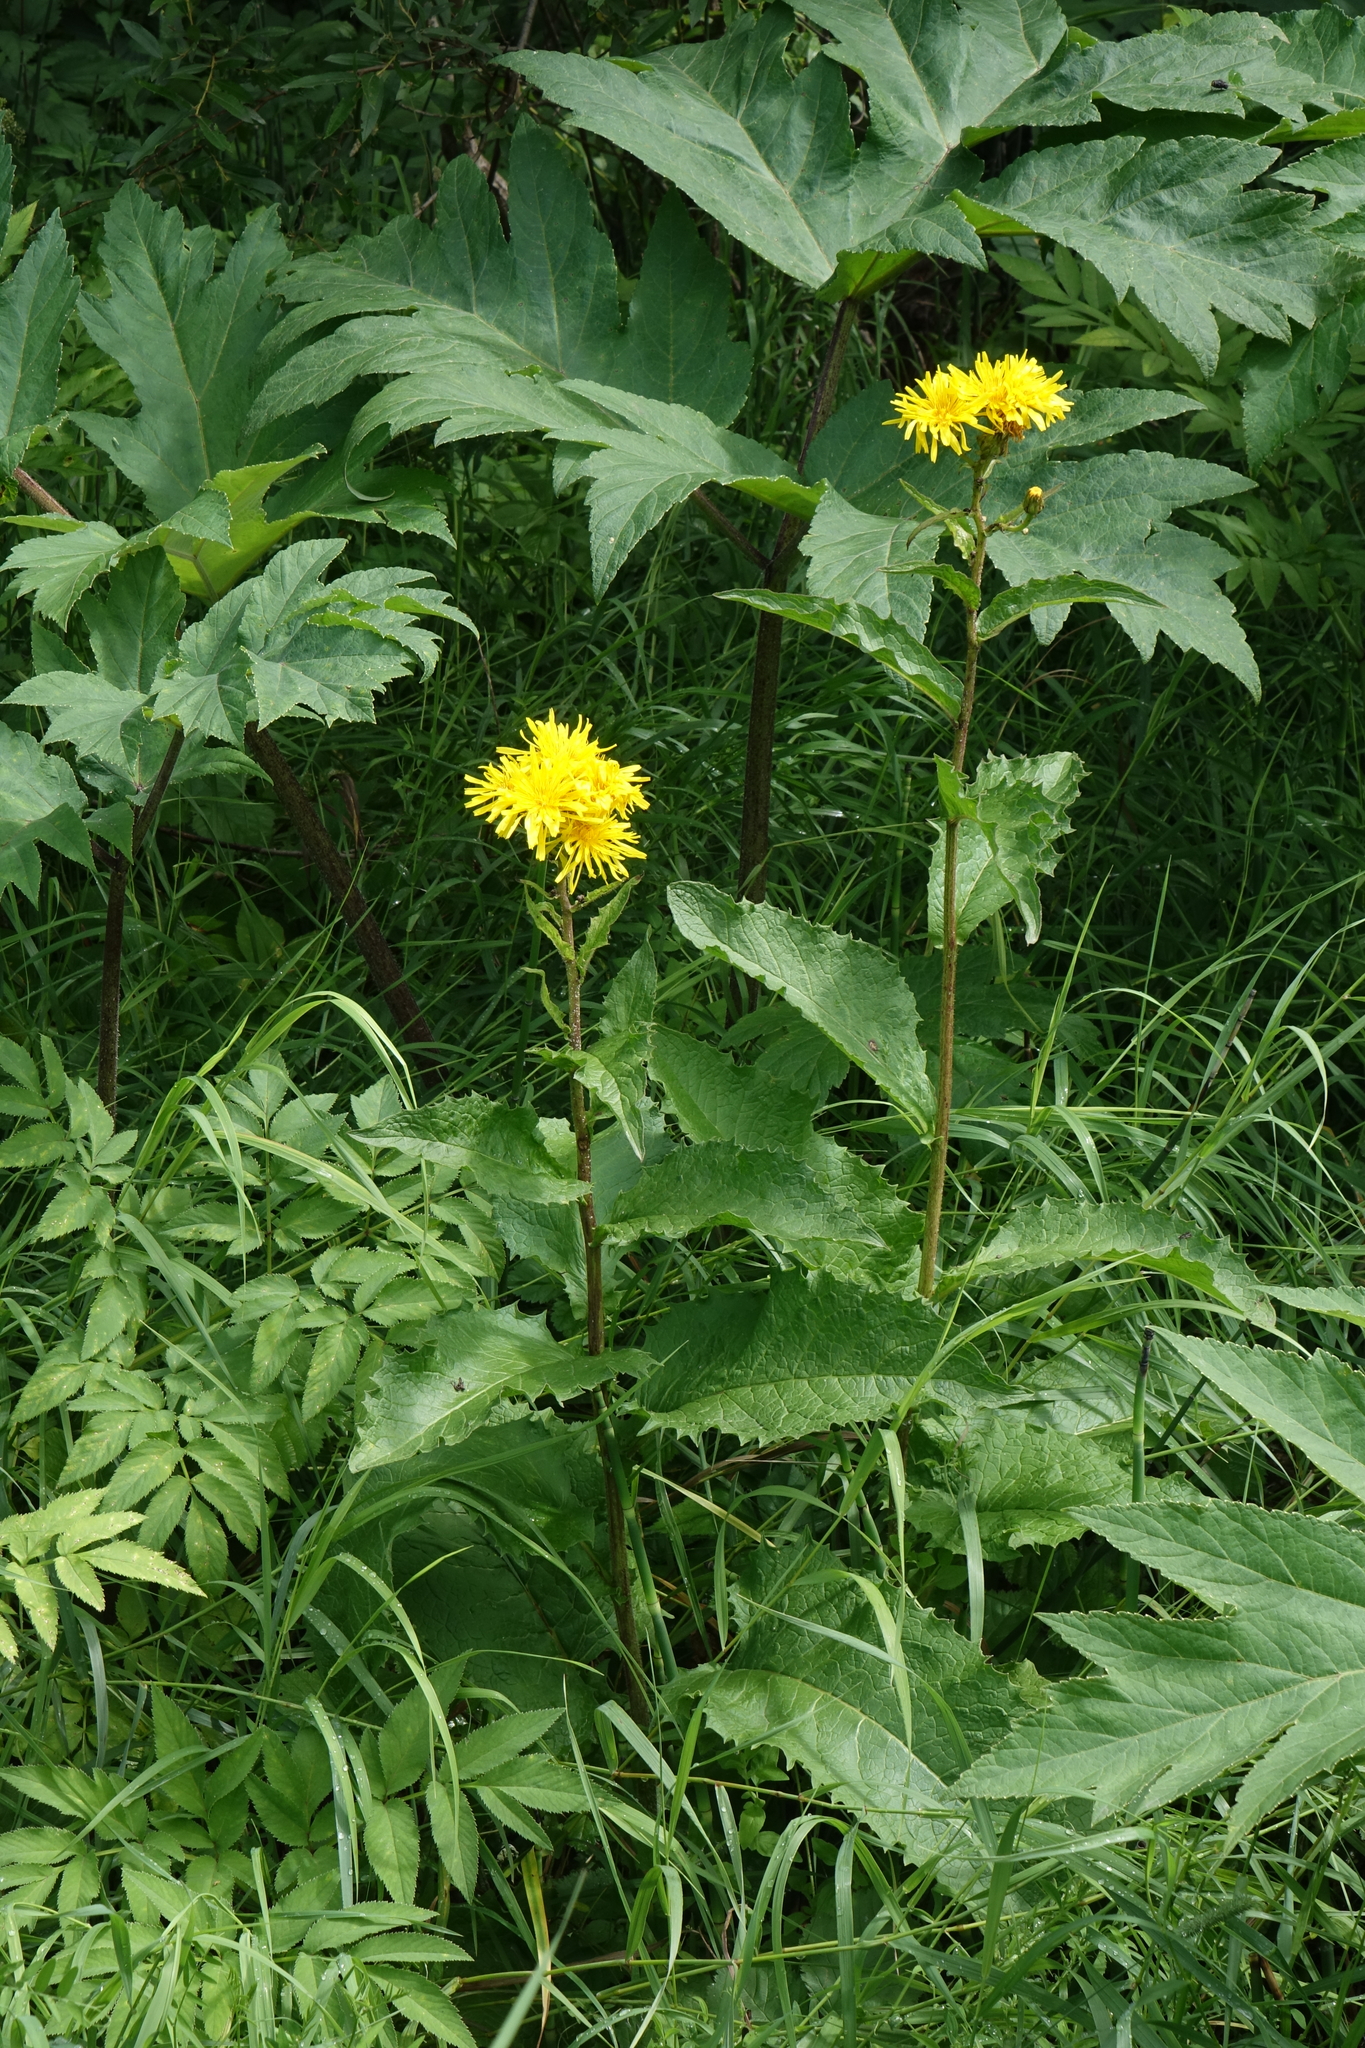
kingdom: Plantae
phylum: Tracheophyta
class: Magnoliopsida
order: Asterales
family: Asteraceae
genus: Crepis
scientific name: Crepis sibirica
